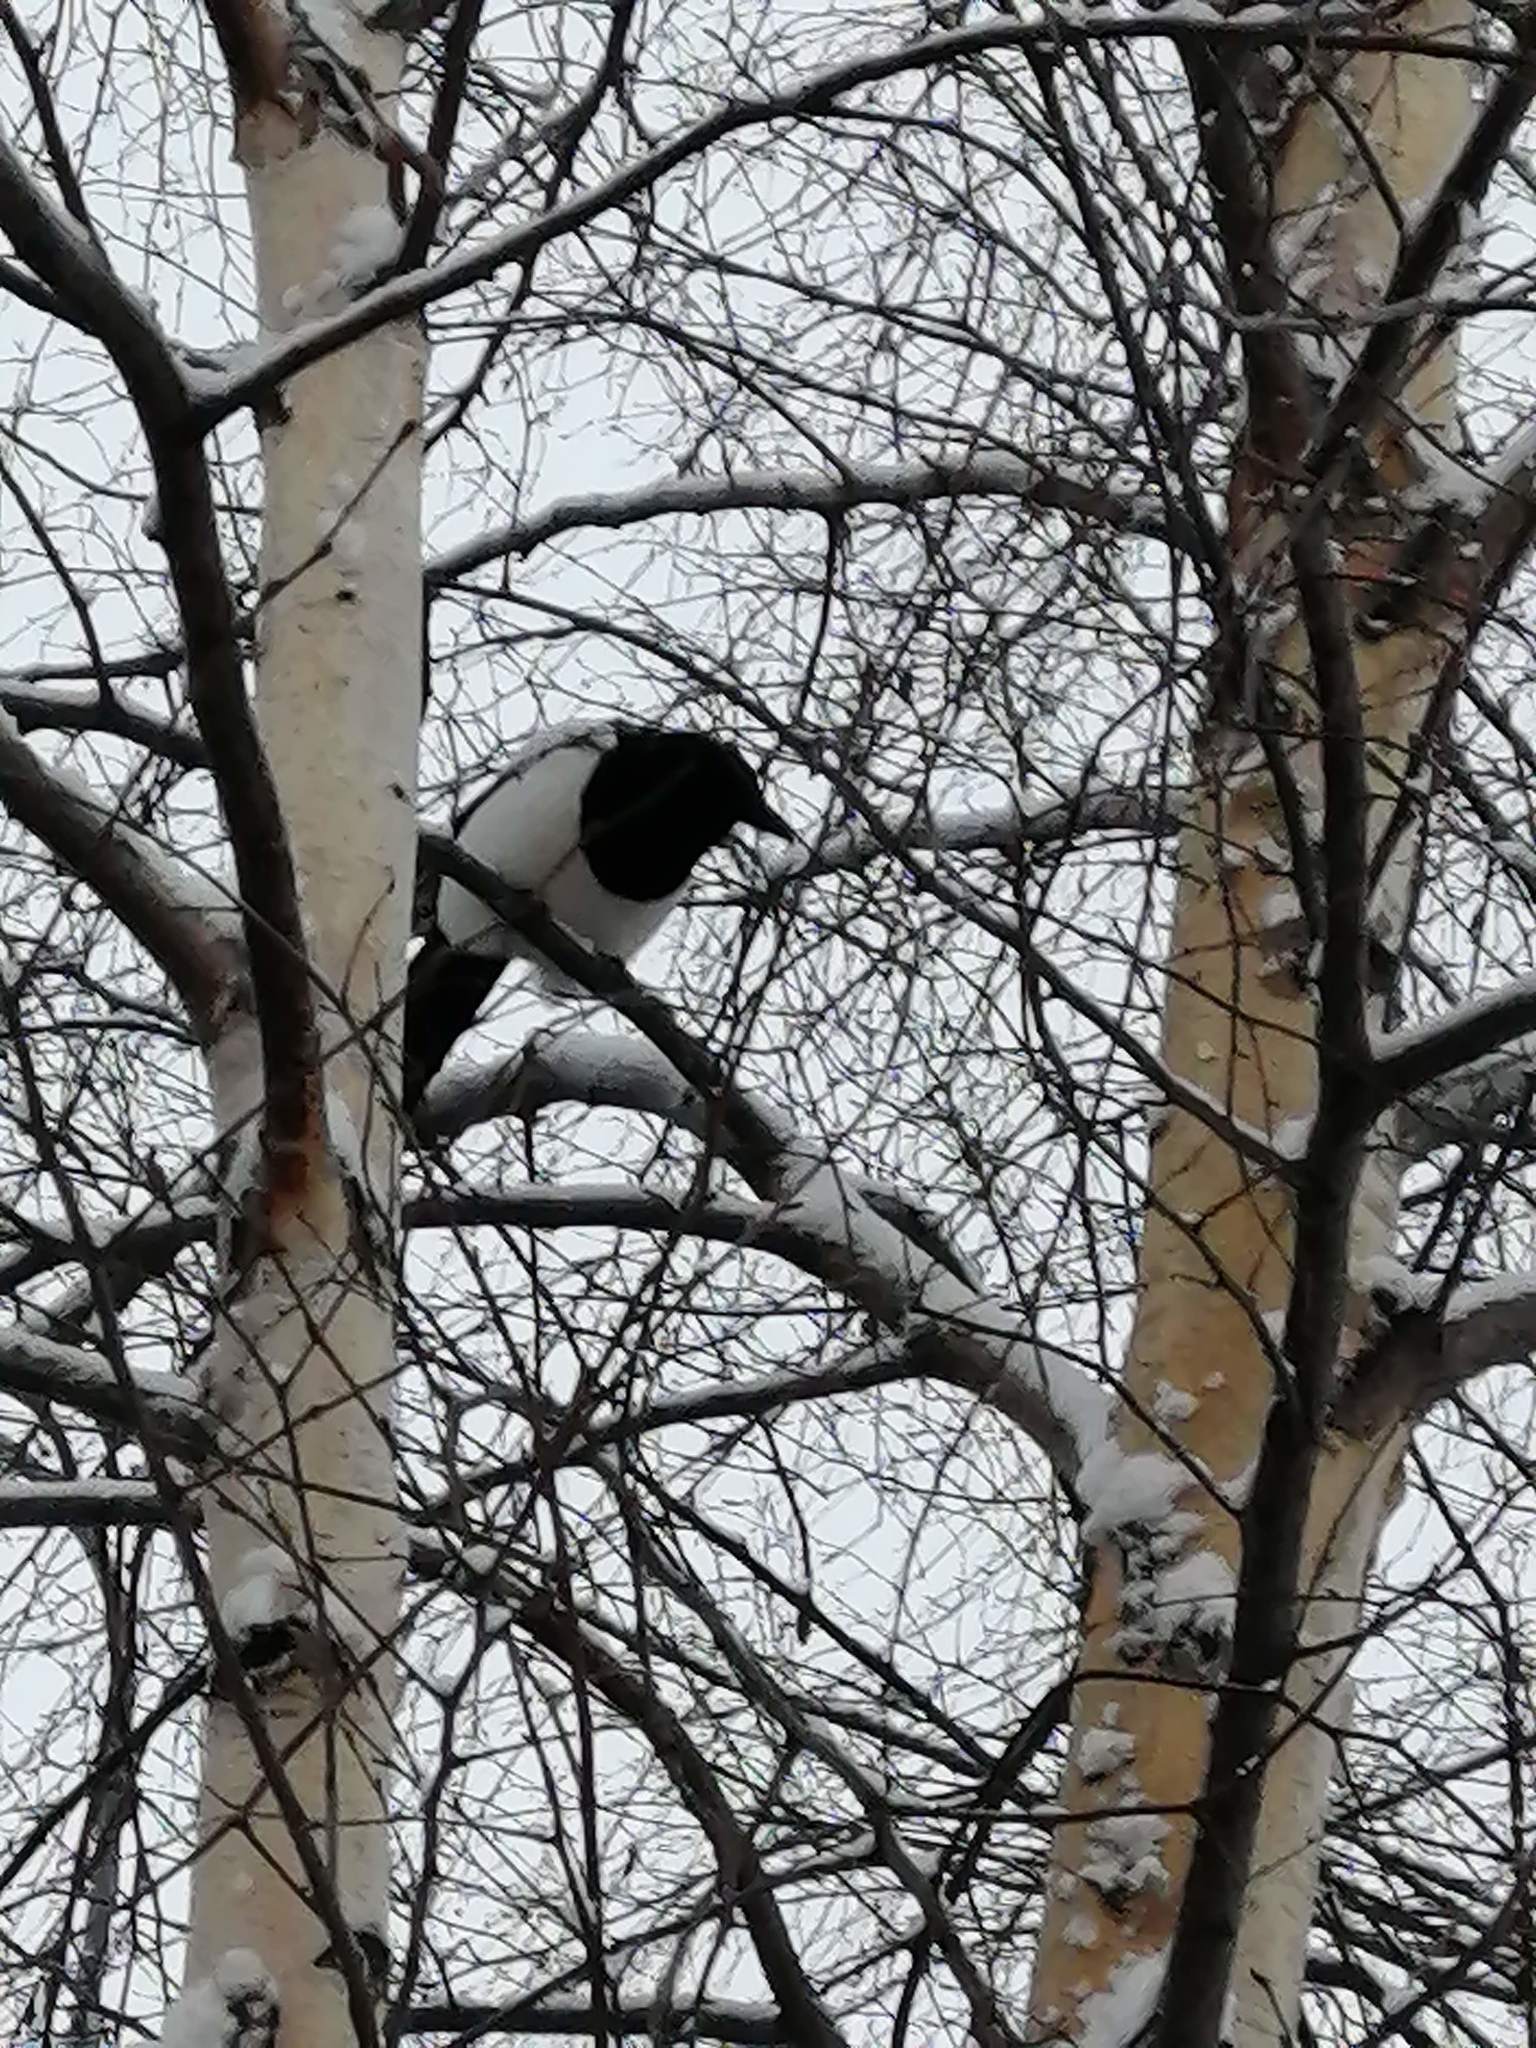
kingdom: Animalia
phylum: Chordata
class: Aves
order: Passeriformes
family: Corvidae
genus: Pica
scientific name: Pica pica
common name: Eurasian magpie
